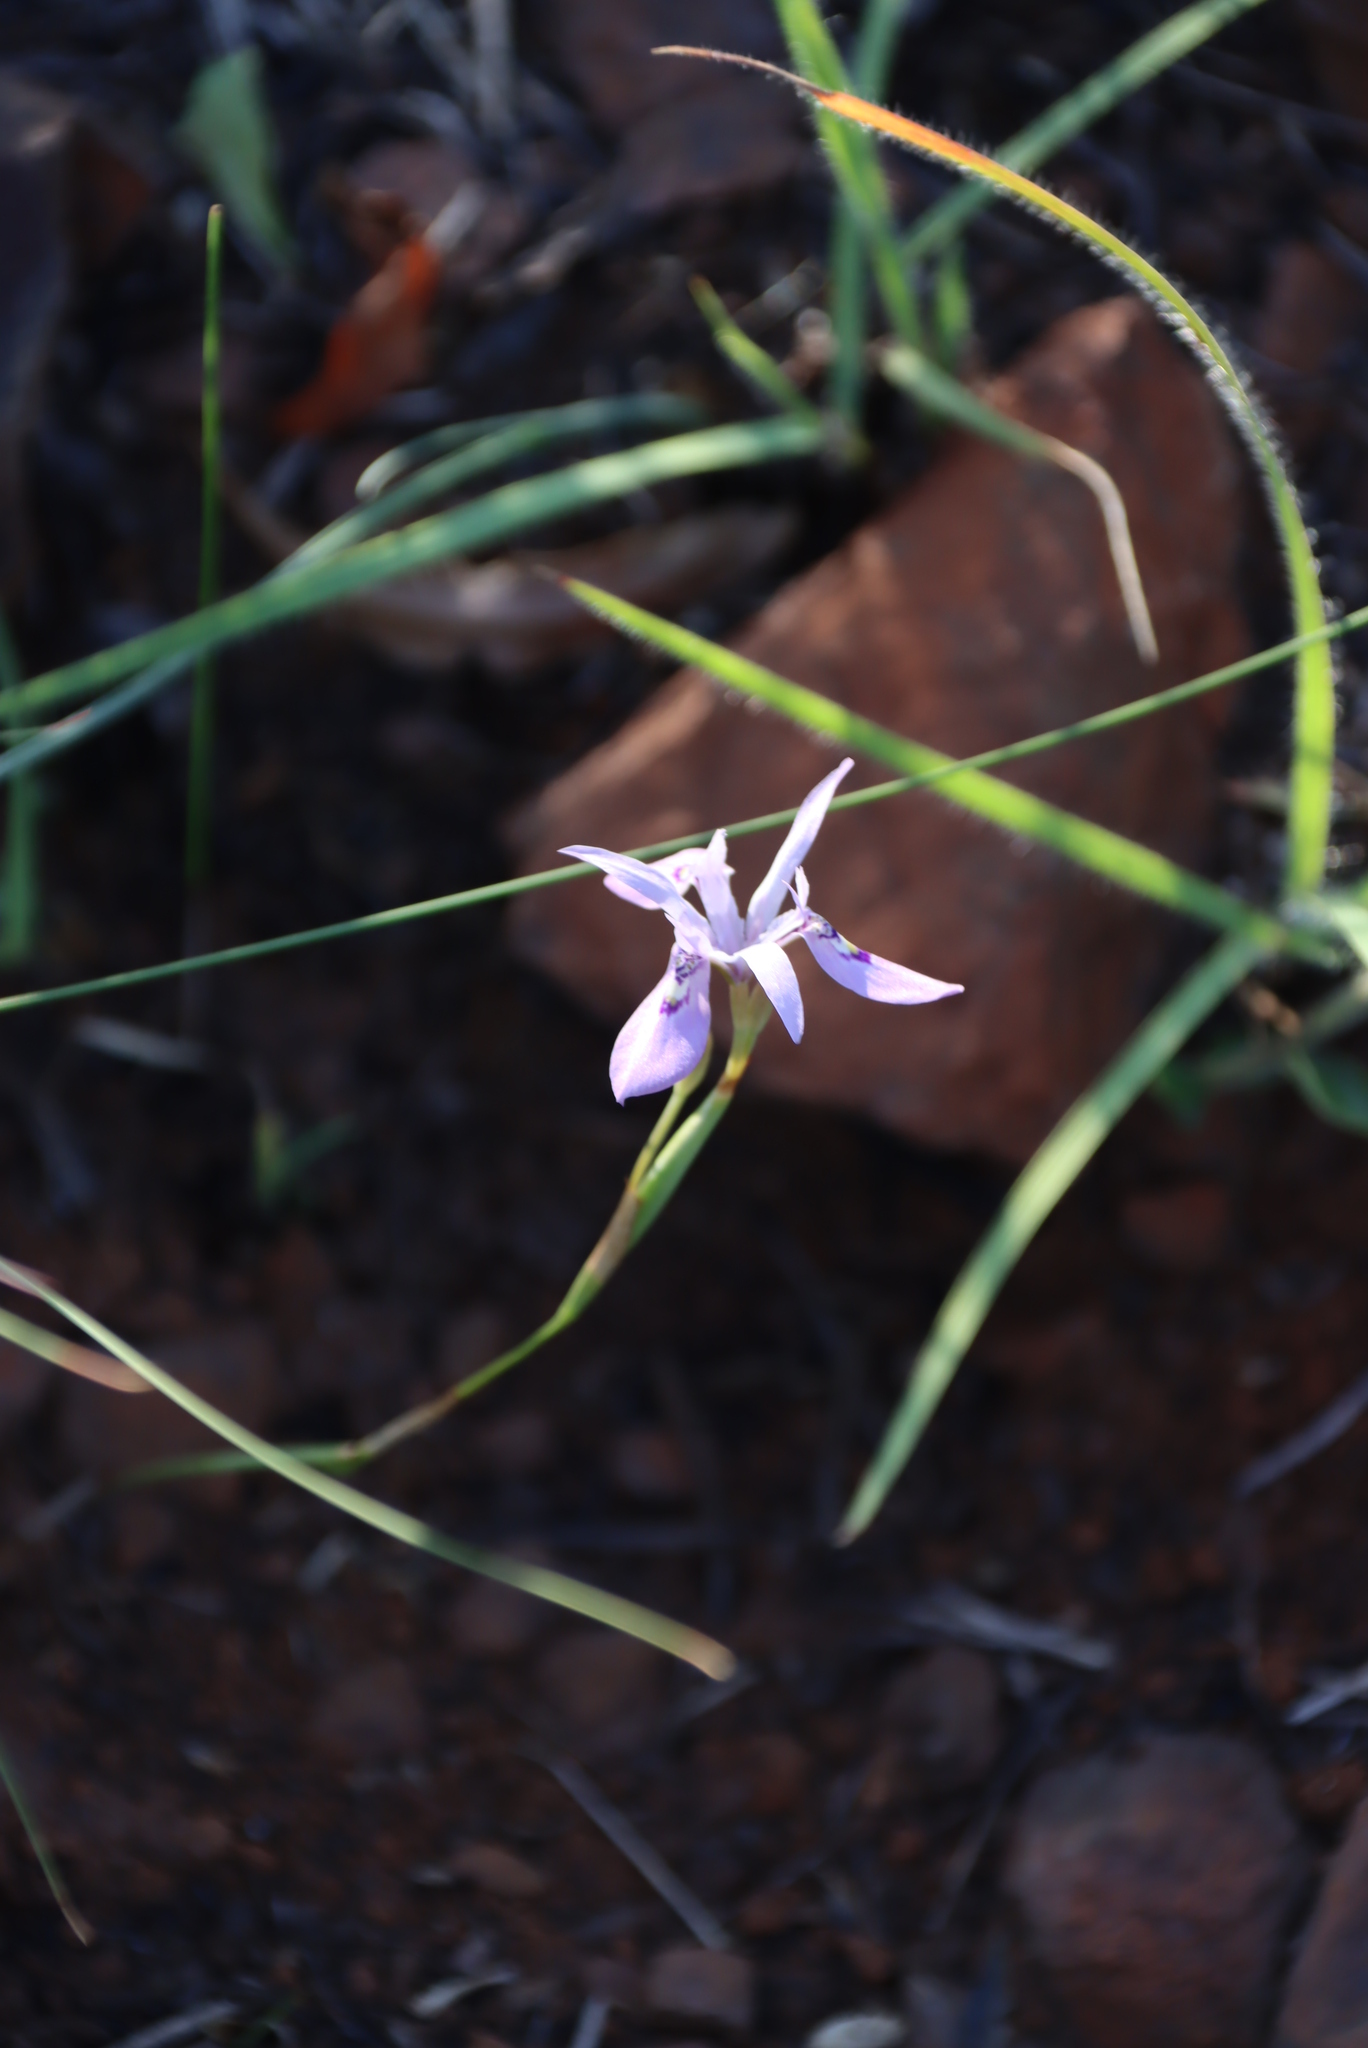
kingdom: Plantae
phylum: Tracheophyta
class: Liliopsida
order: Asparagales
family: Iridaceae
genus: Moraea
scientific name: Moraea stricta
